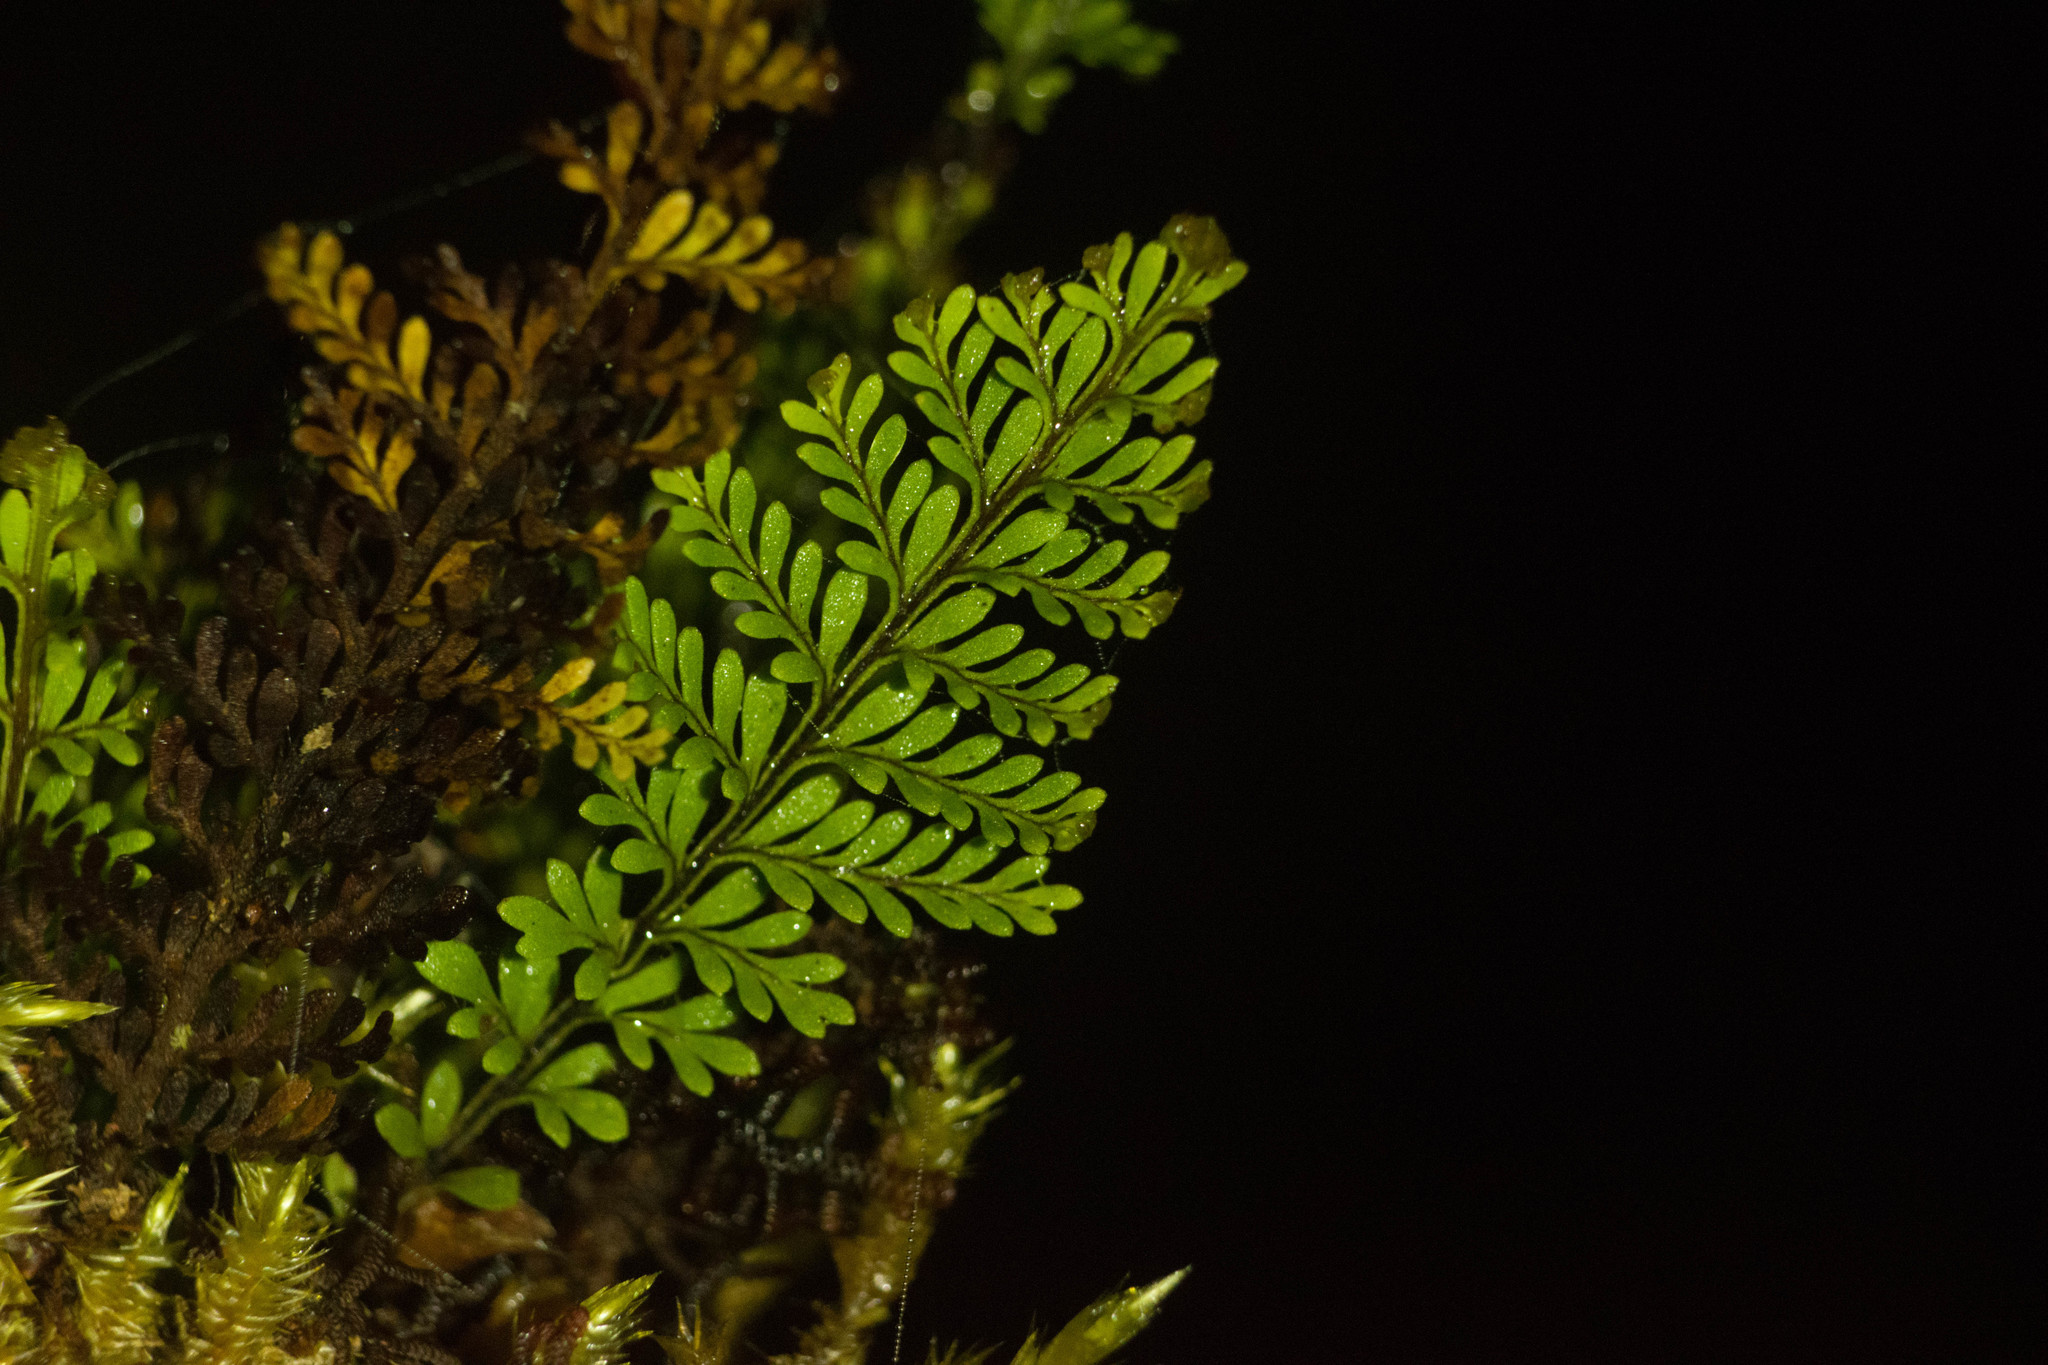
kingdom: Plantae
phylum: Tracheophyta
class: Polypodiopsida
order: Polypodiales
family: Polypodiaceae
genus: Adenophorus
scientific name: Adenophorus tamariscinus
